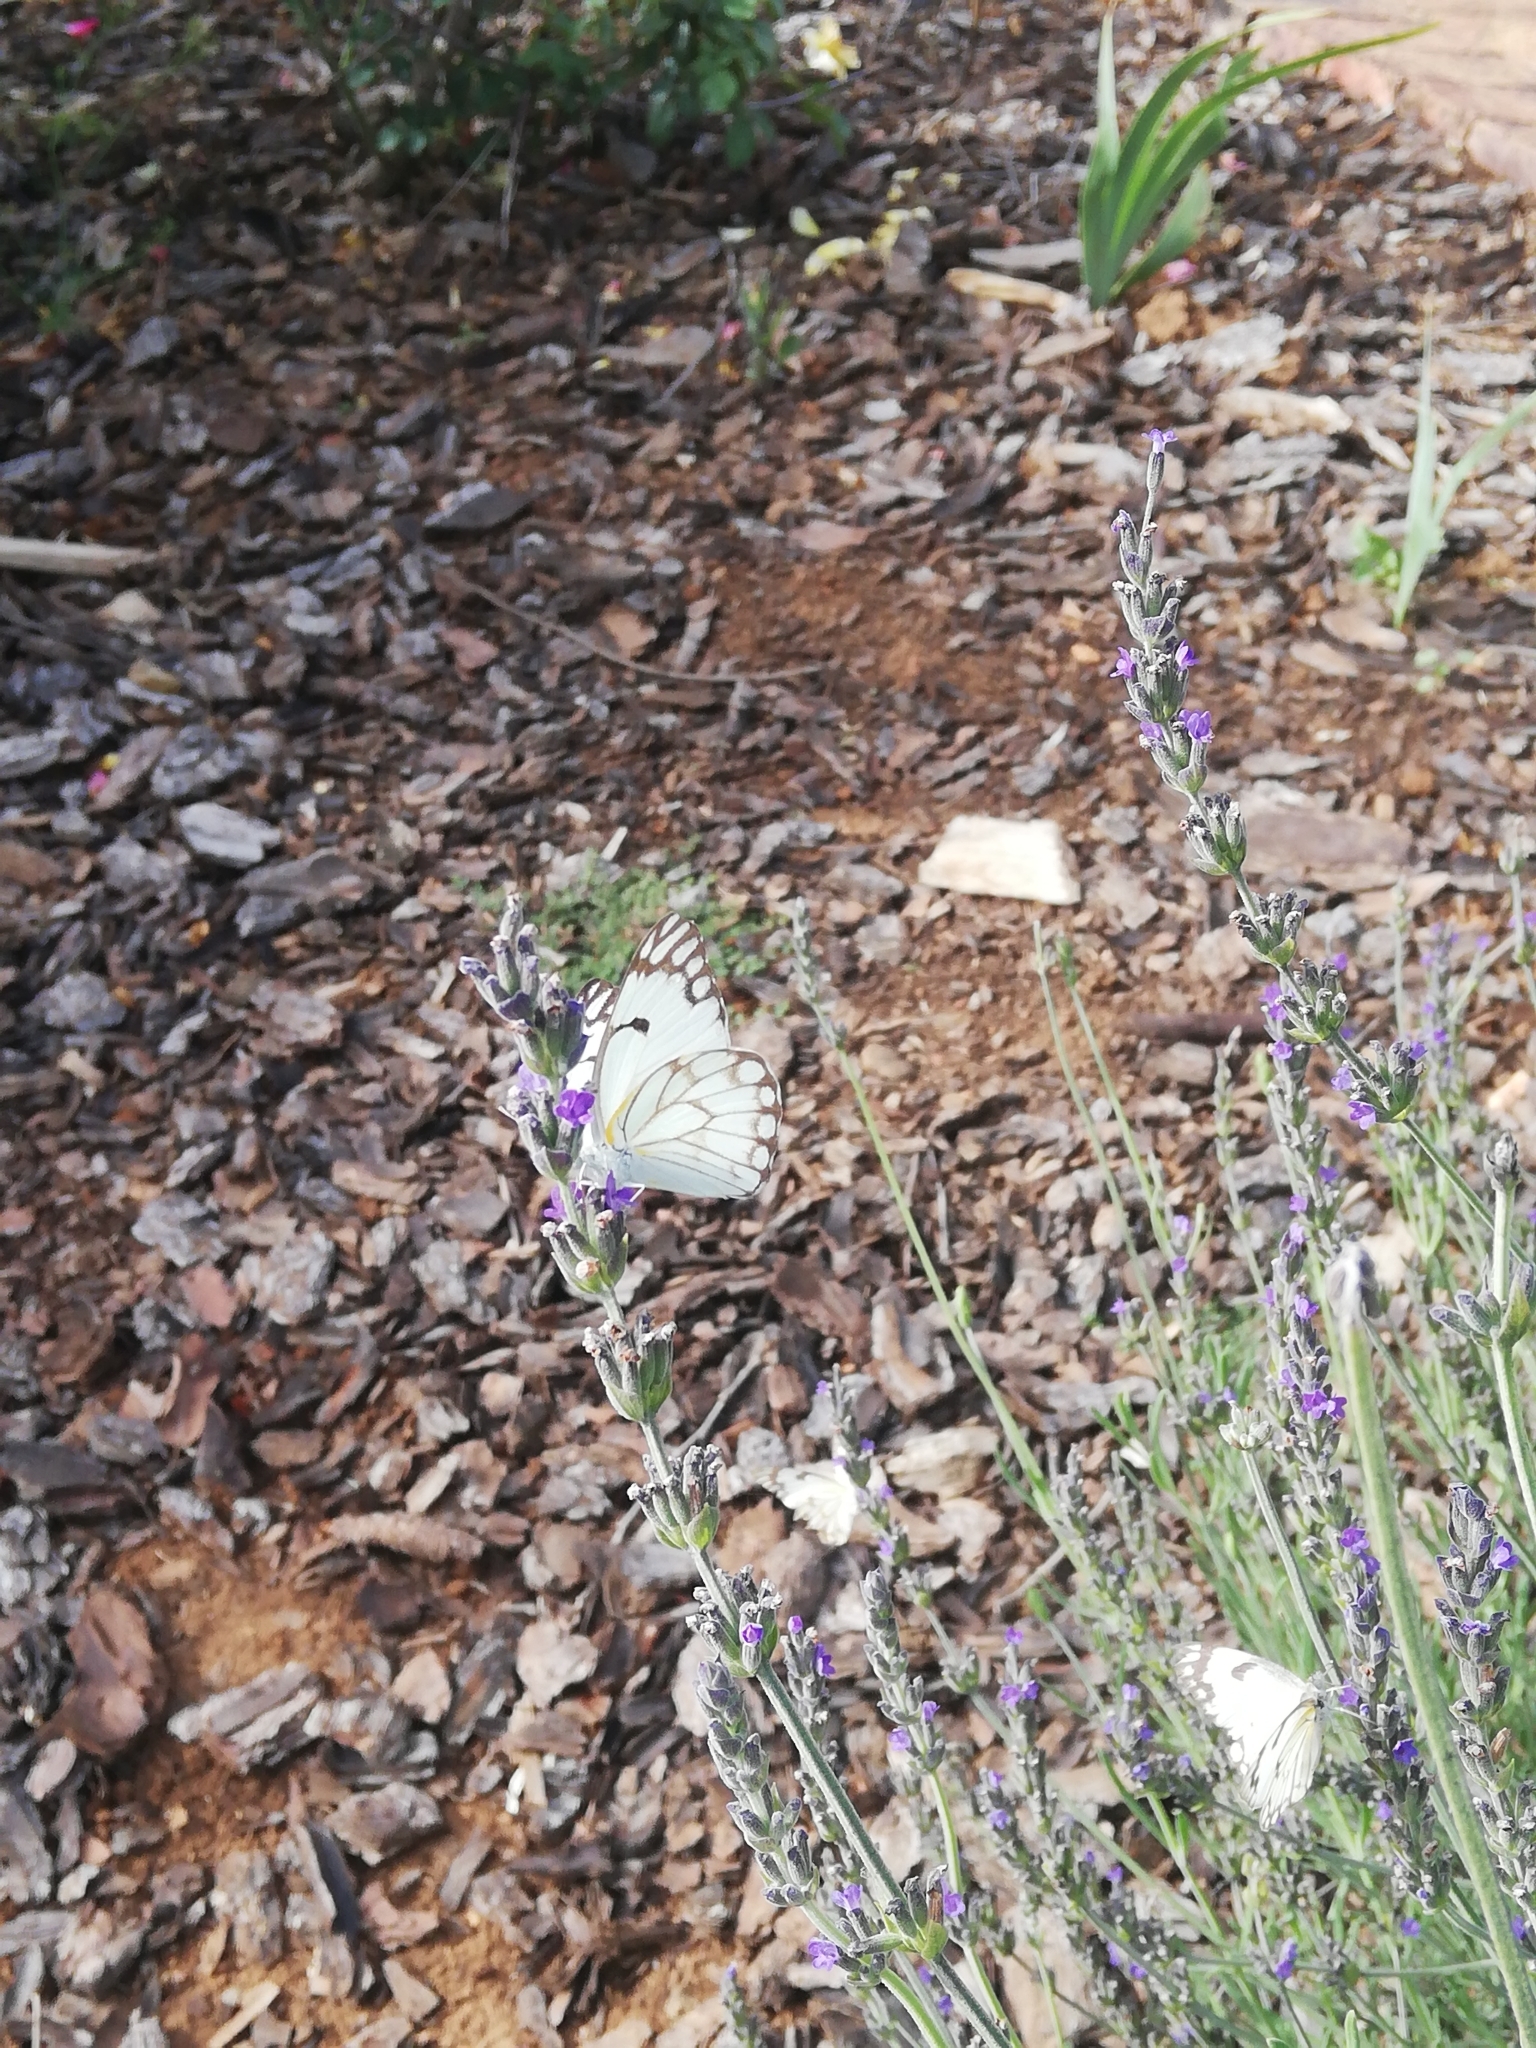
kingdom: Animalia
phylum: Arthropoda
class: Insecta
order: Lepidoptera
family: Pieridae
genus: Belenois
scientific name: Belenois aurota
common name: Brown-veined white
